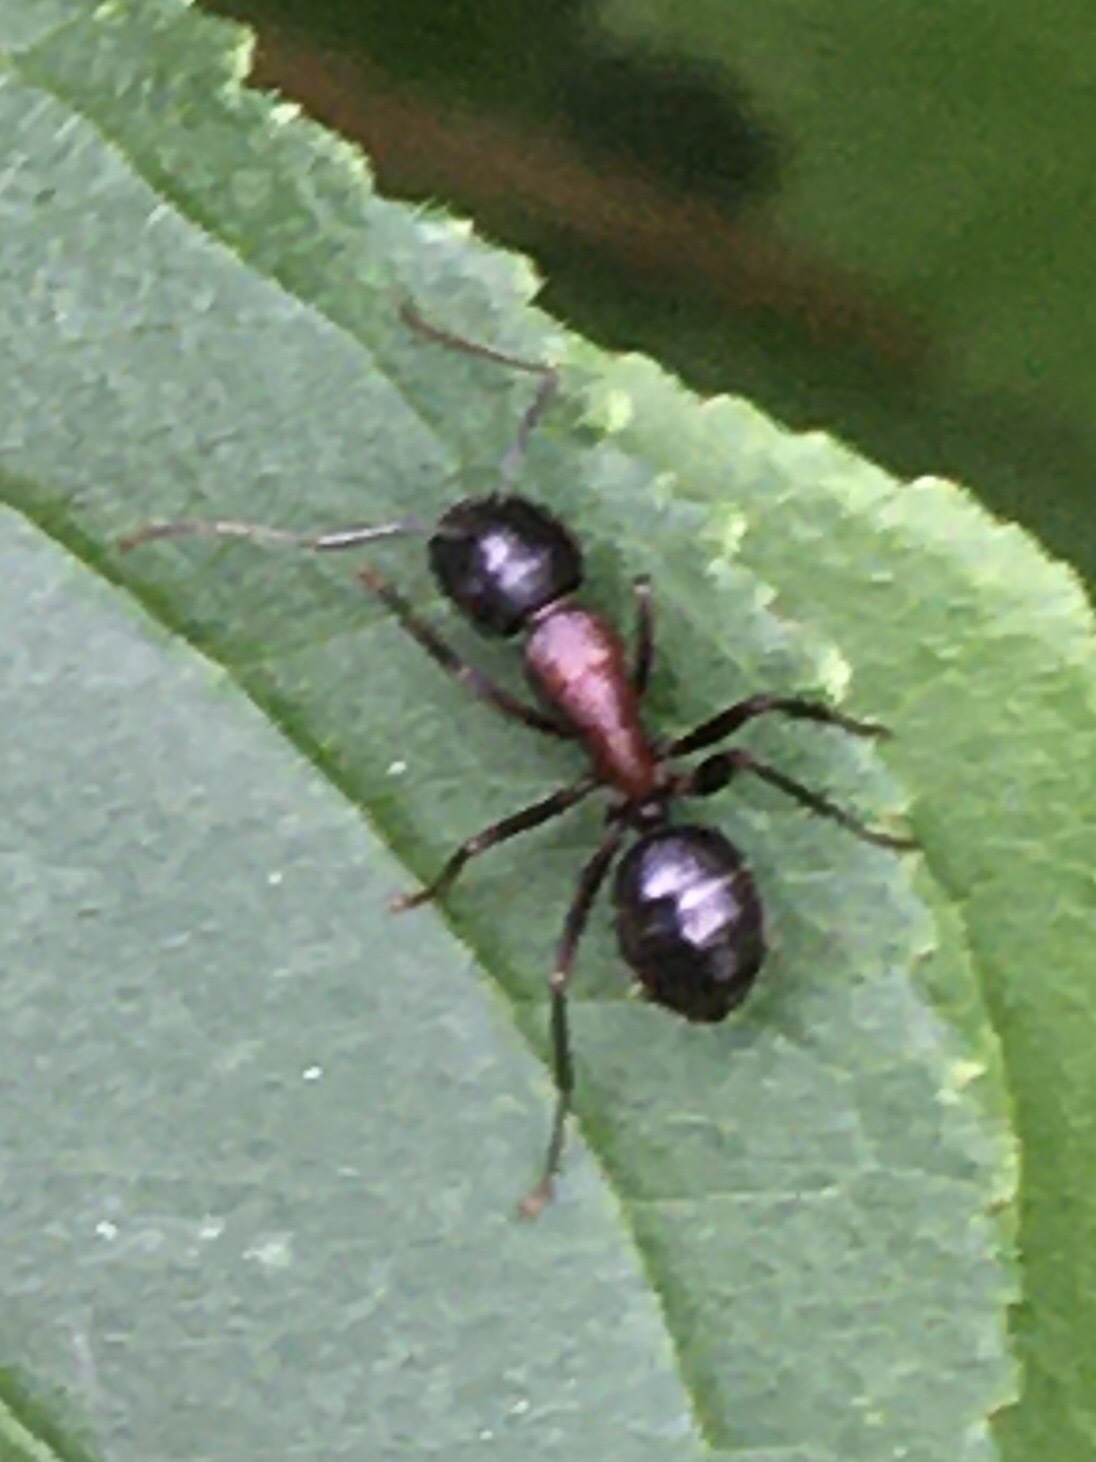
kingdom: Animalia
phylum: Arthropoda
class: Insecta
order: Hymenoptera
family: Formicidae
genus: Camponotus
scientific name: Camponotus novaeboracensis
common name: New york carpenter ant
